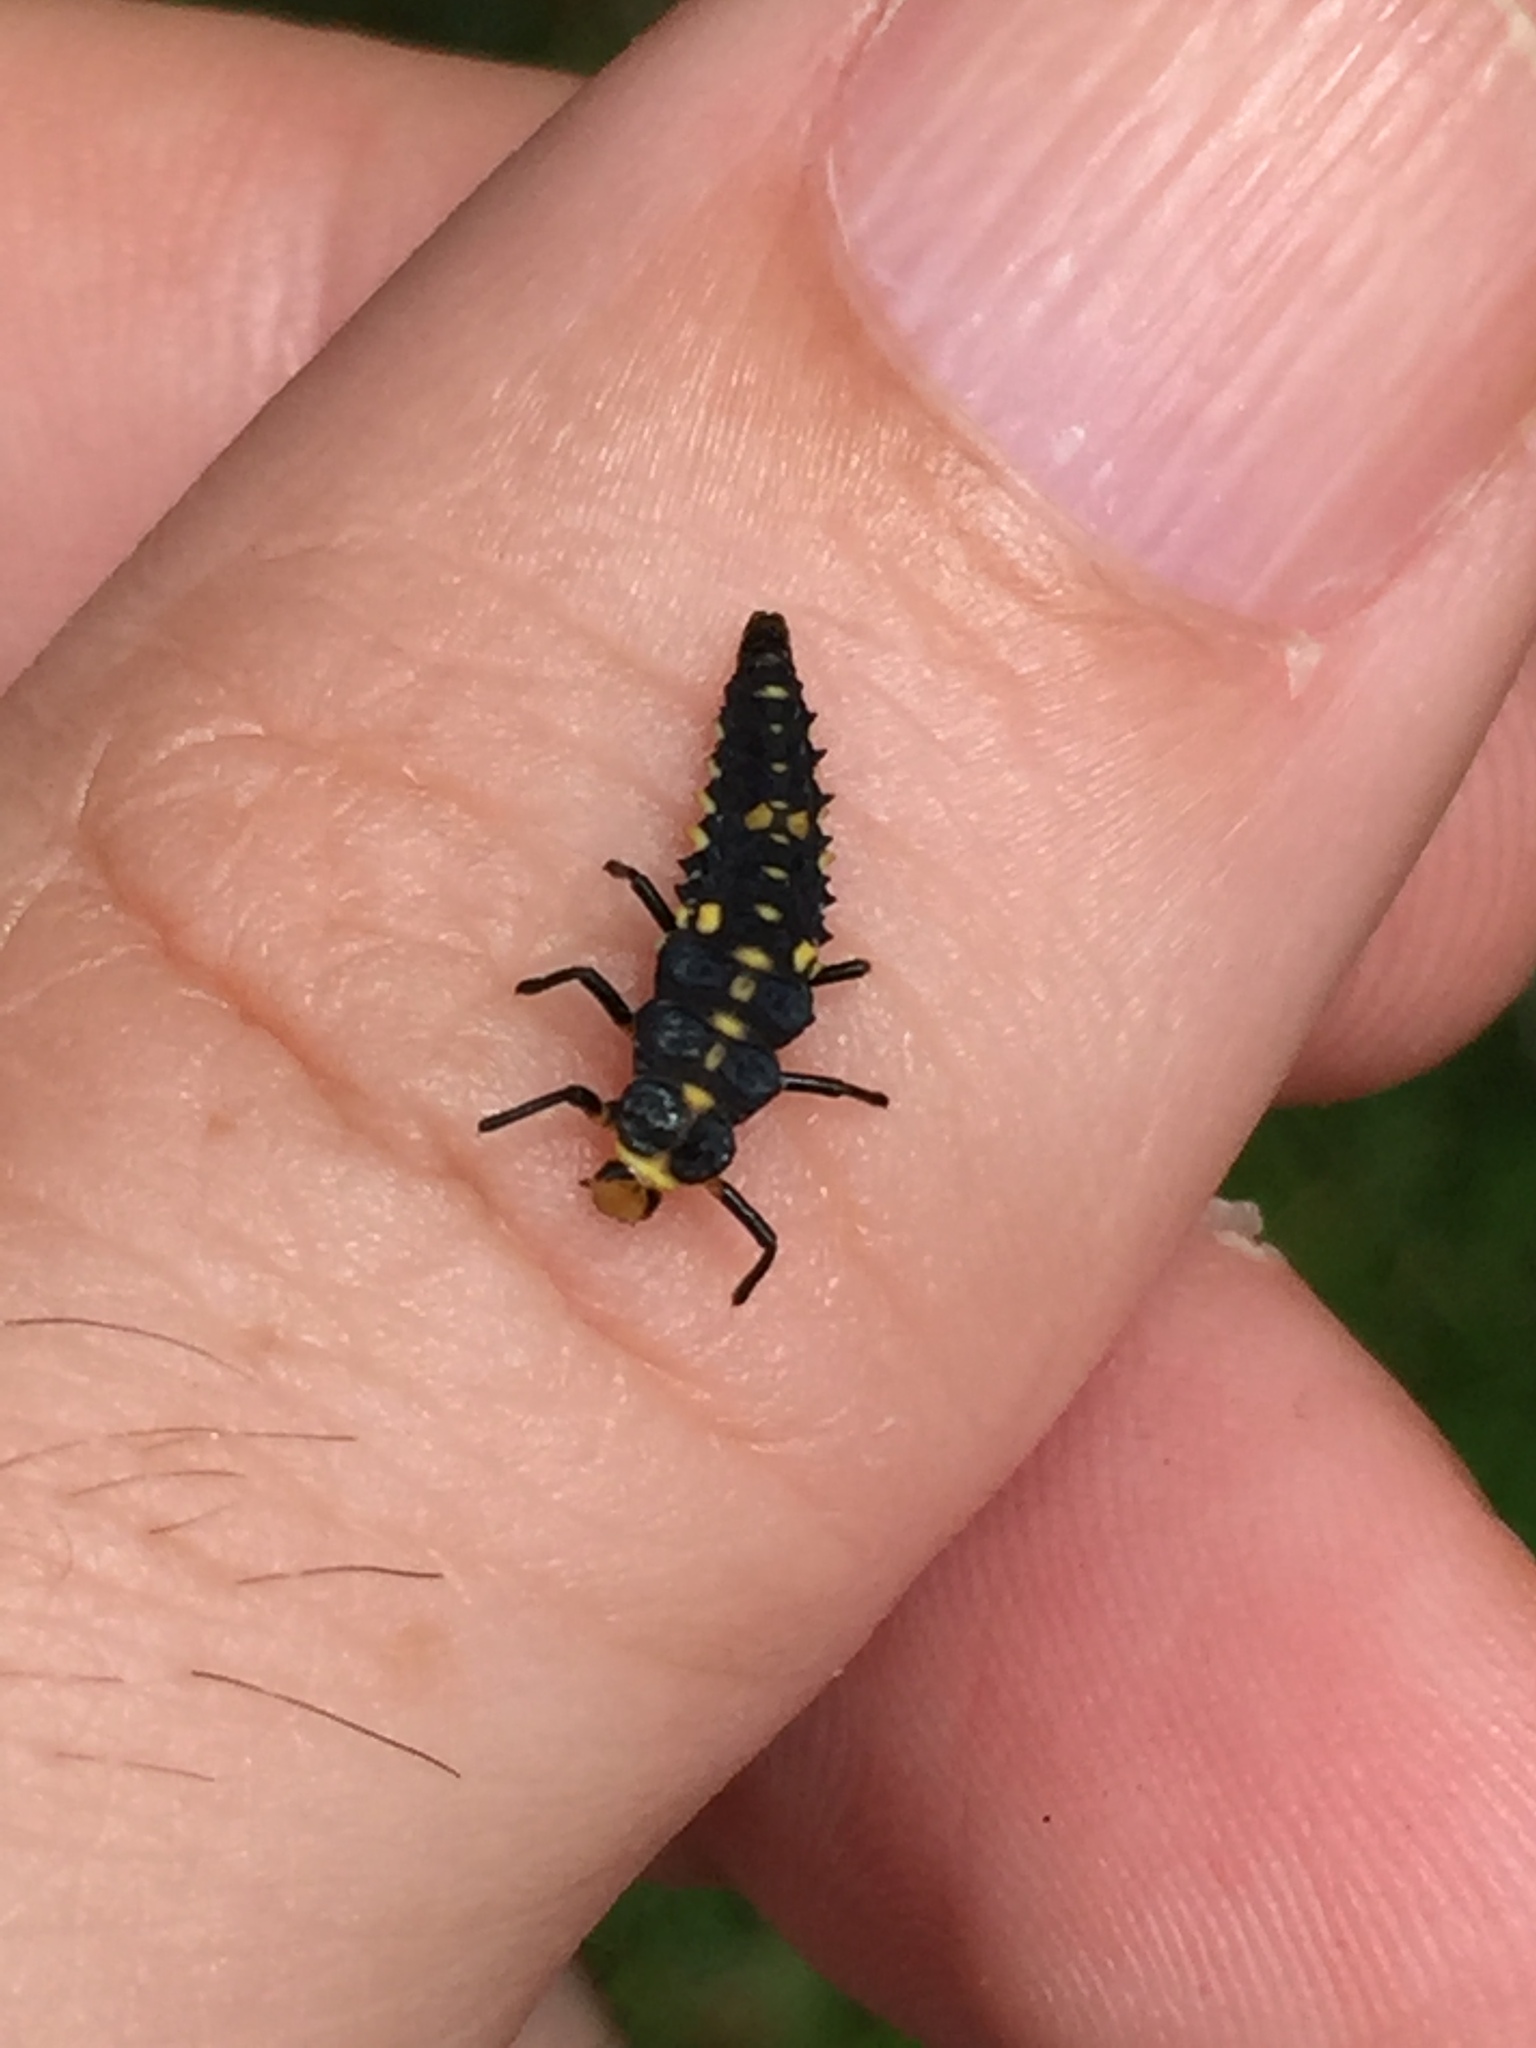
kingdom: Animalia
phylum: Arthropoda
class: Insecta
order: Coleoptera
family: Coccinellidae
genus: Cleobora
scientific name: Cleobora
